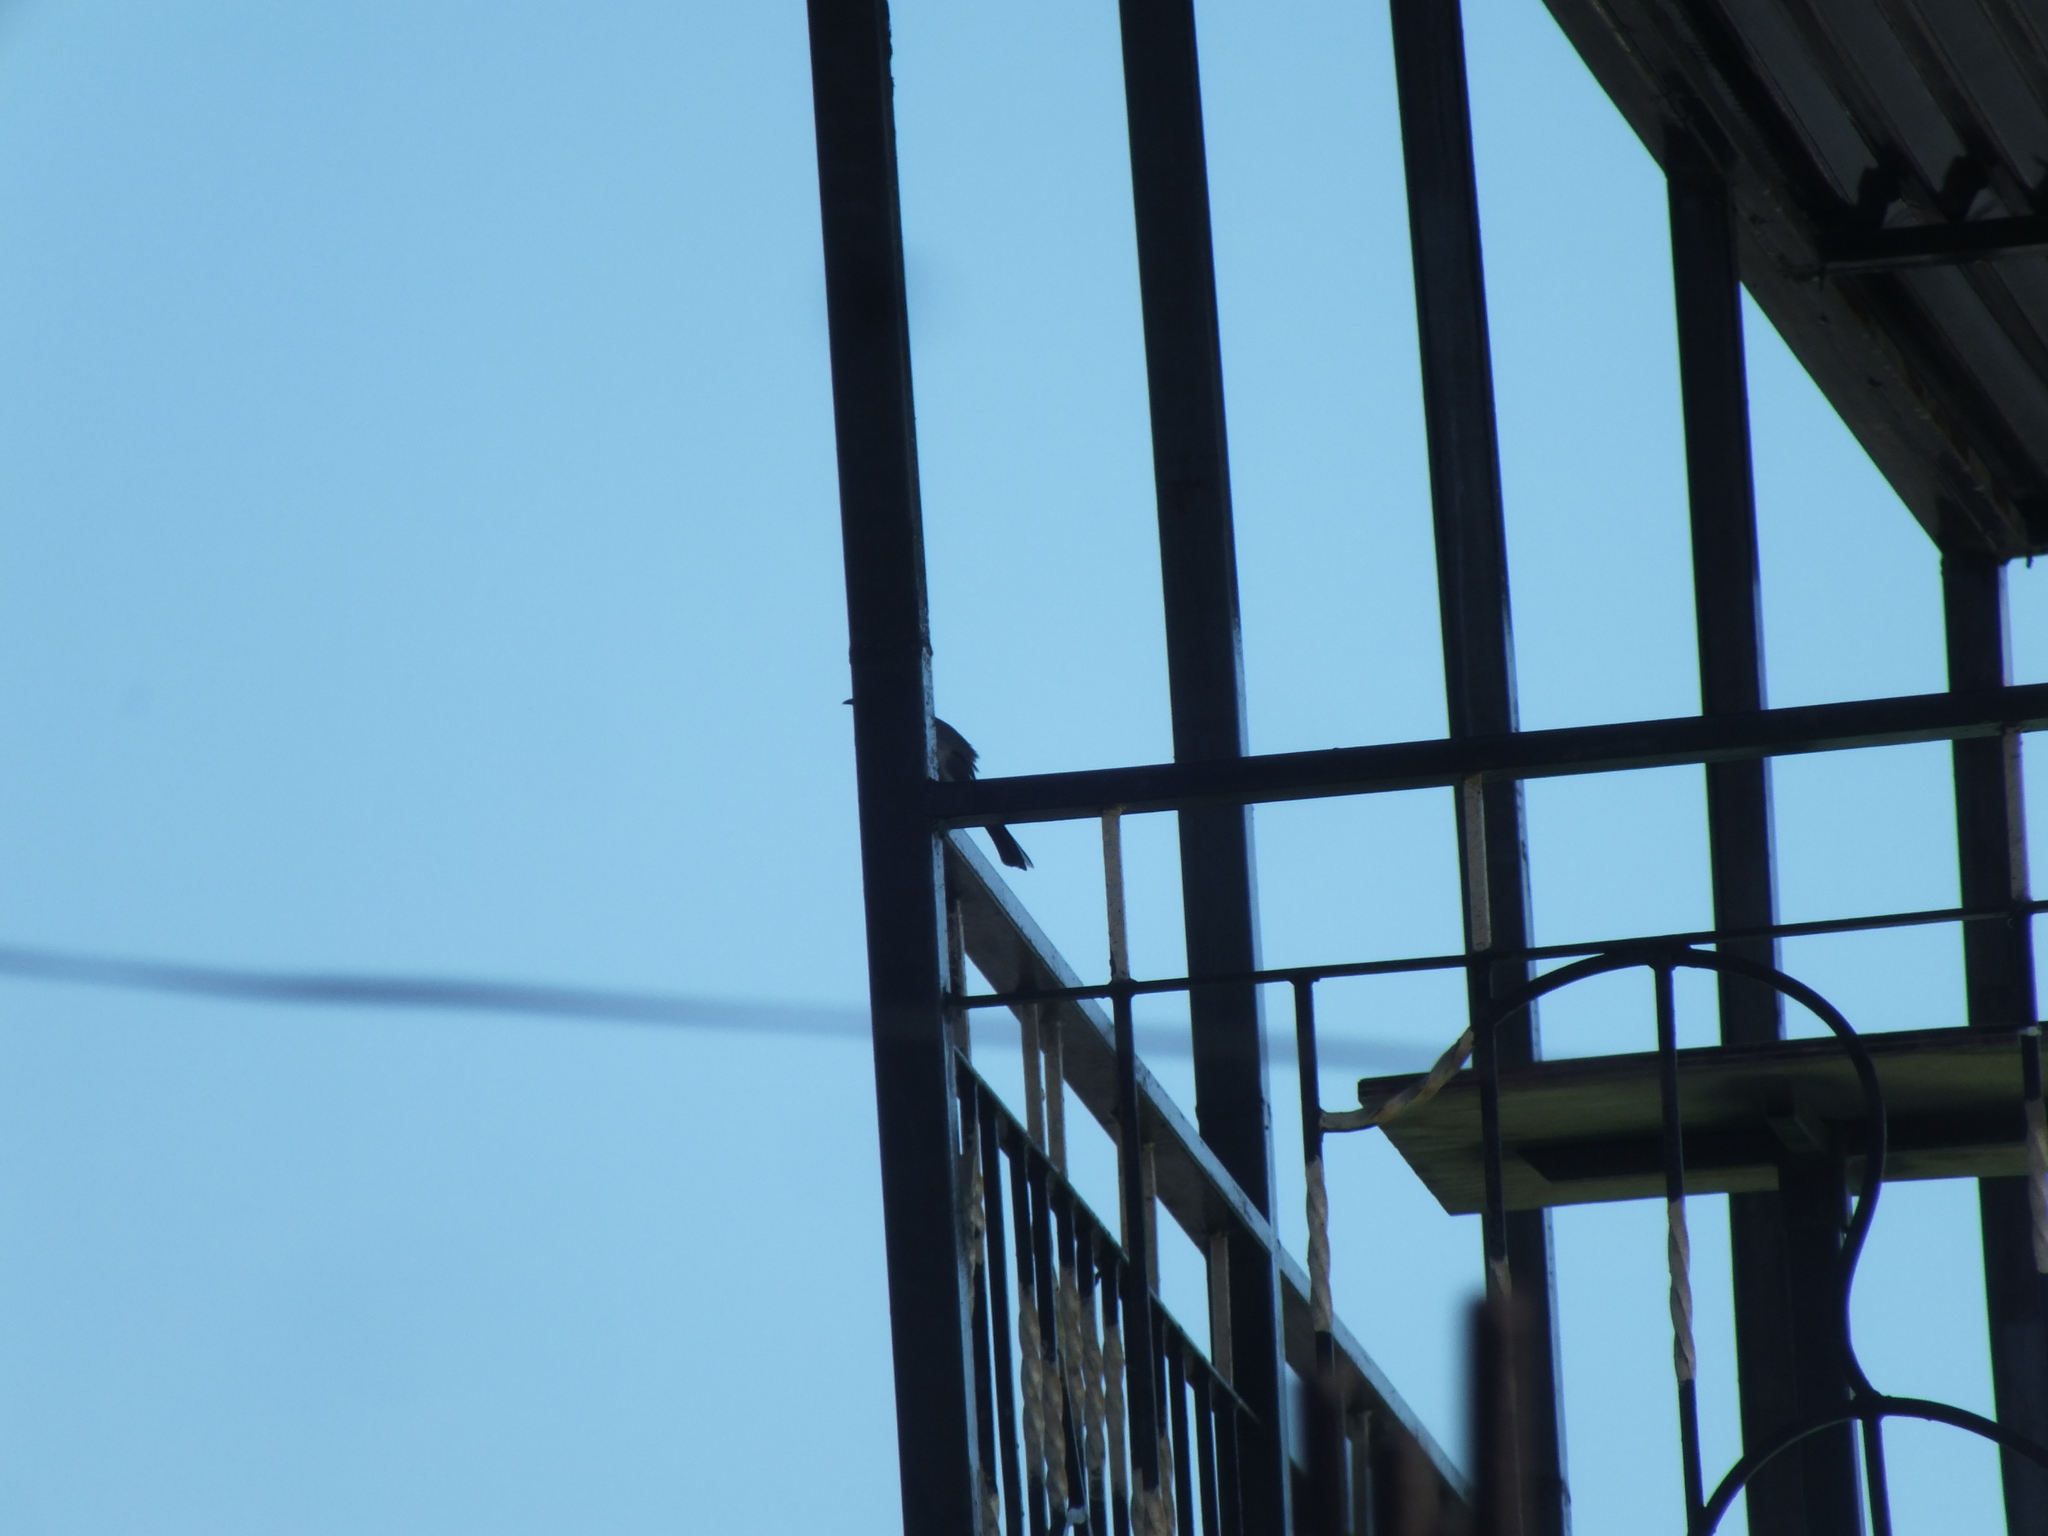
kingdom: Animalia
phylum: Chordata
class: Aves
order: Passeriformes
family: Mimidae
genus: Mimus
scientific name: Mimus polyglottos
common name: Northern mockingbird
